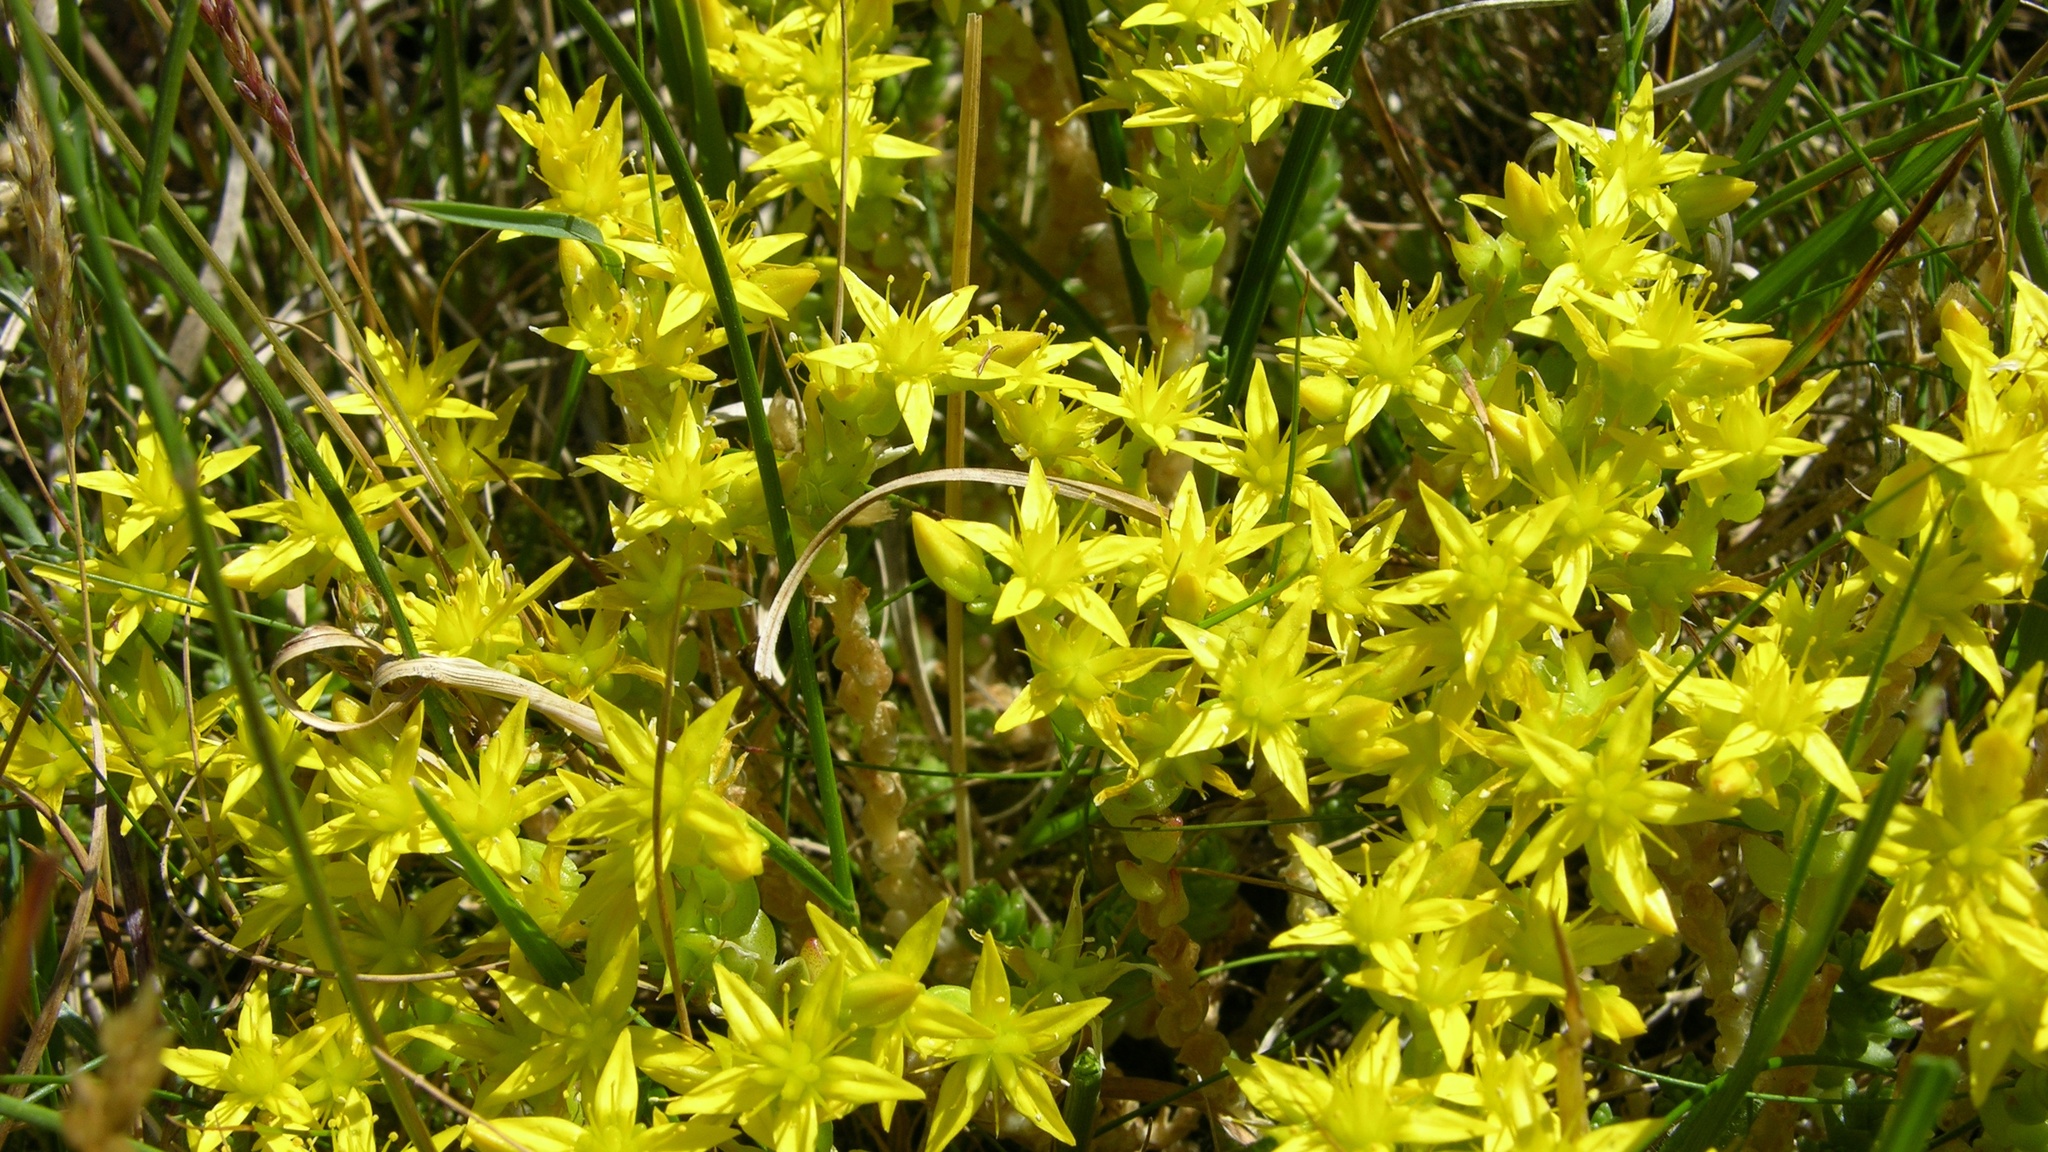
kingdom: Plantae
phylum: Tracheophyta
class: Magnoliopsida
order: Saxifragales
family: Crassulaceae
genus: Sedum
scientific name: Sedum acre
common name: Biting stonecrop
